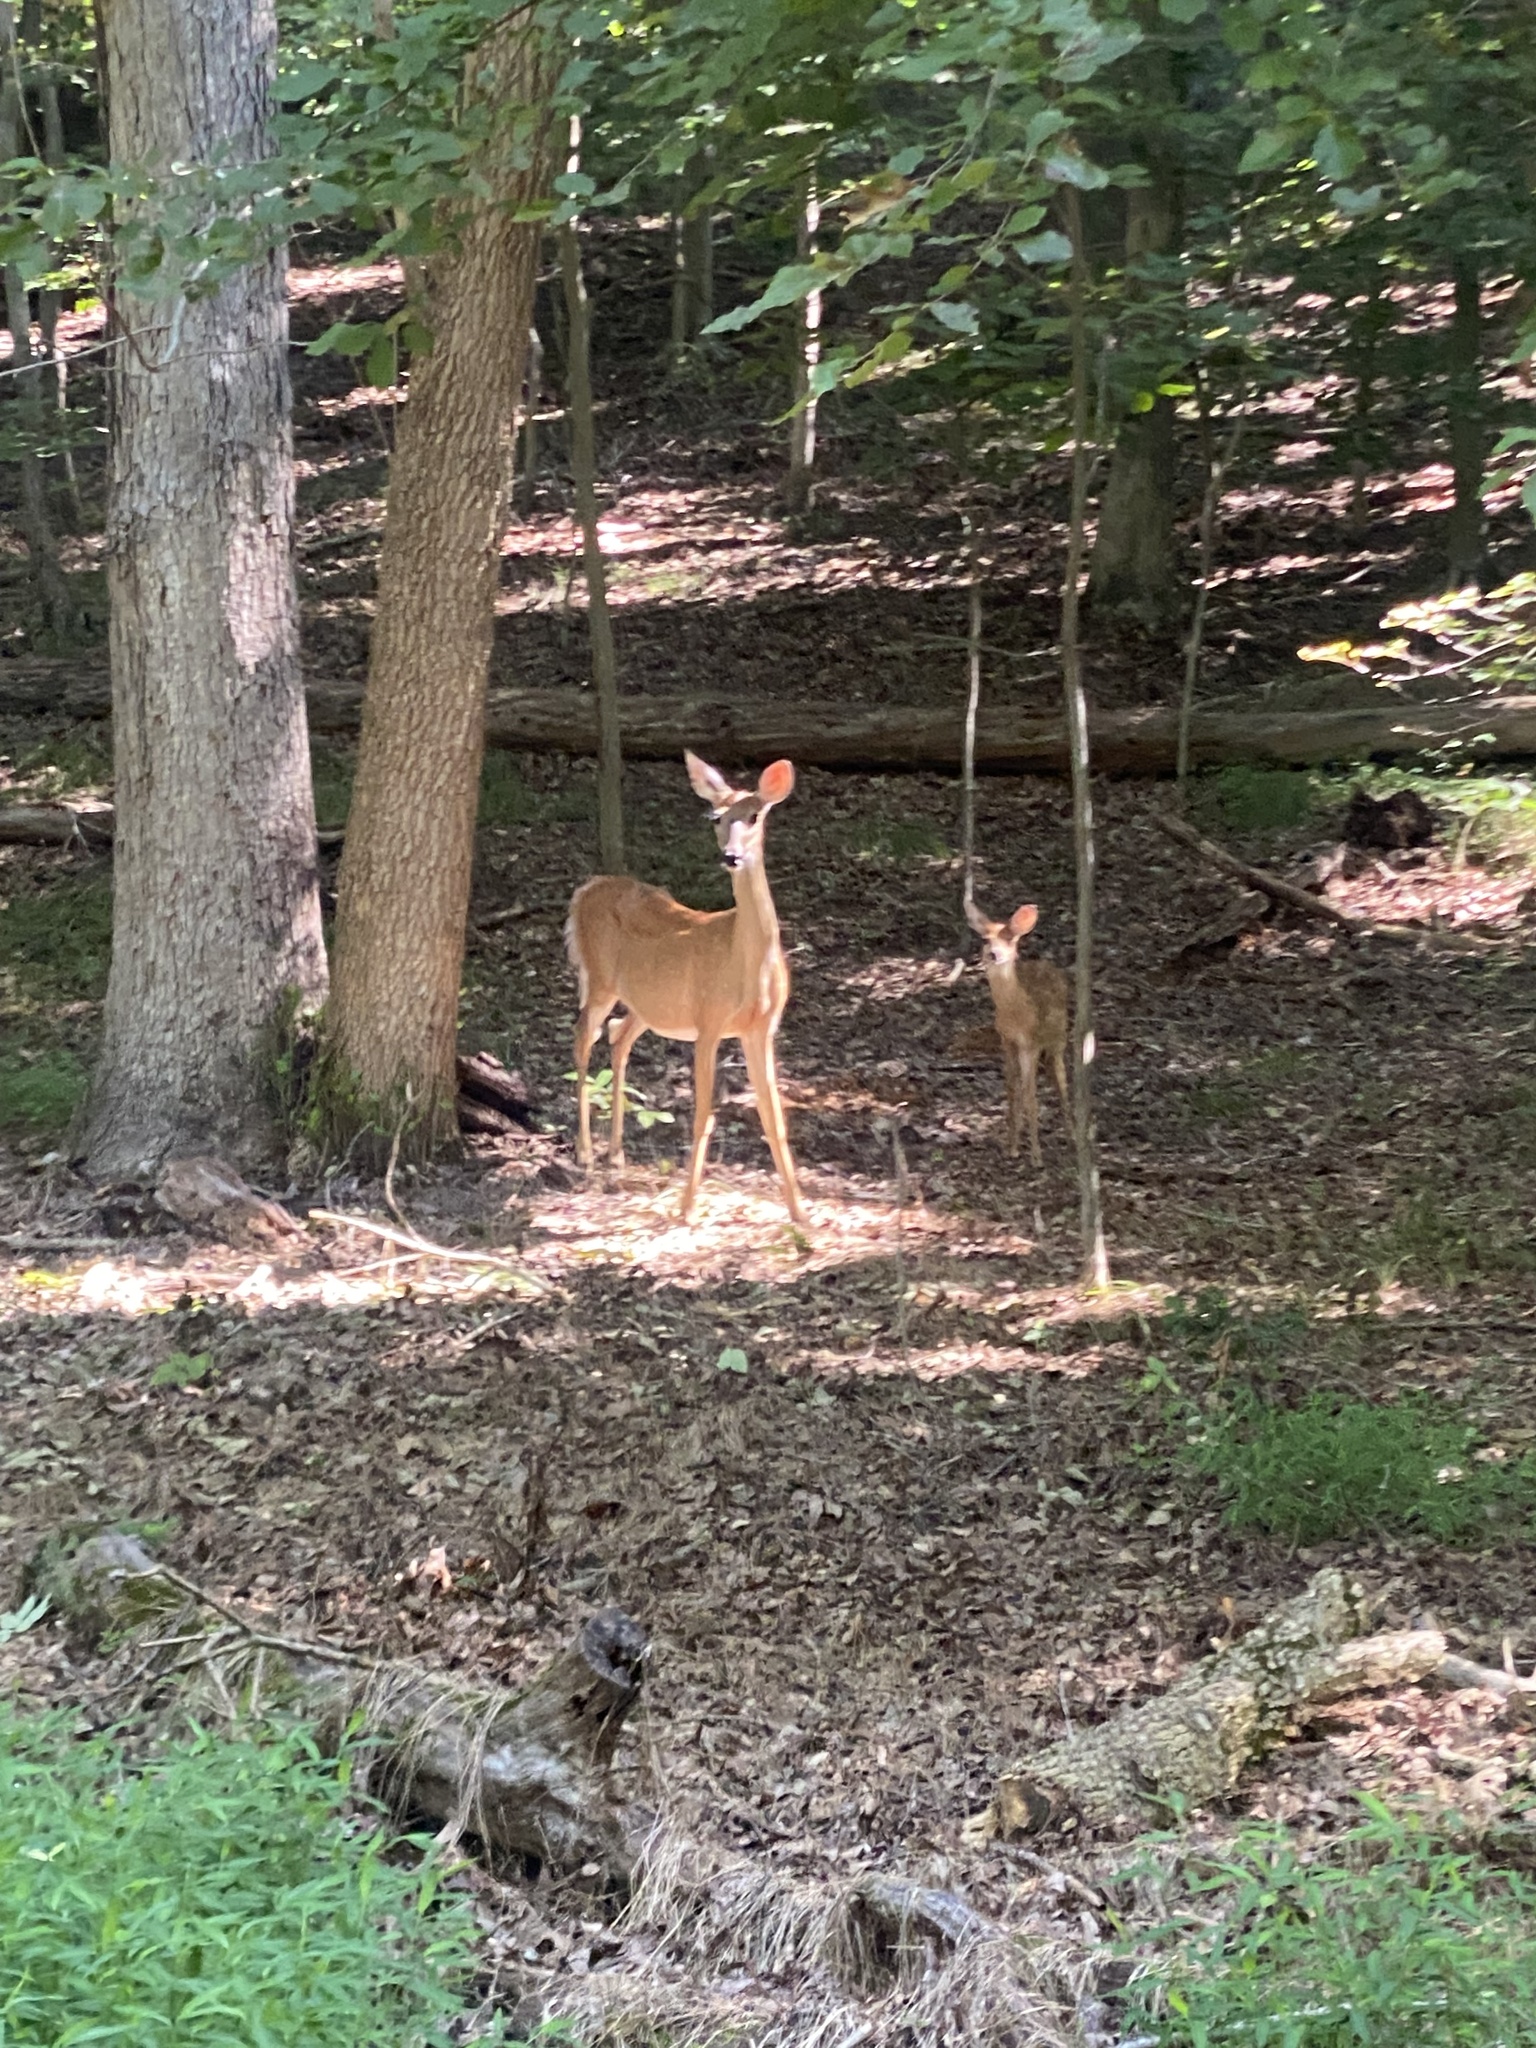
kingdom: Animalia
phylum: Chordata
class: Mammalia
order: Artiodactyla
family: Cervidae
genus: Odocoileus
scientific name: Odocoileus virginianus
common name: White-tailed deer
